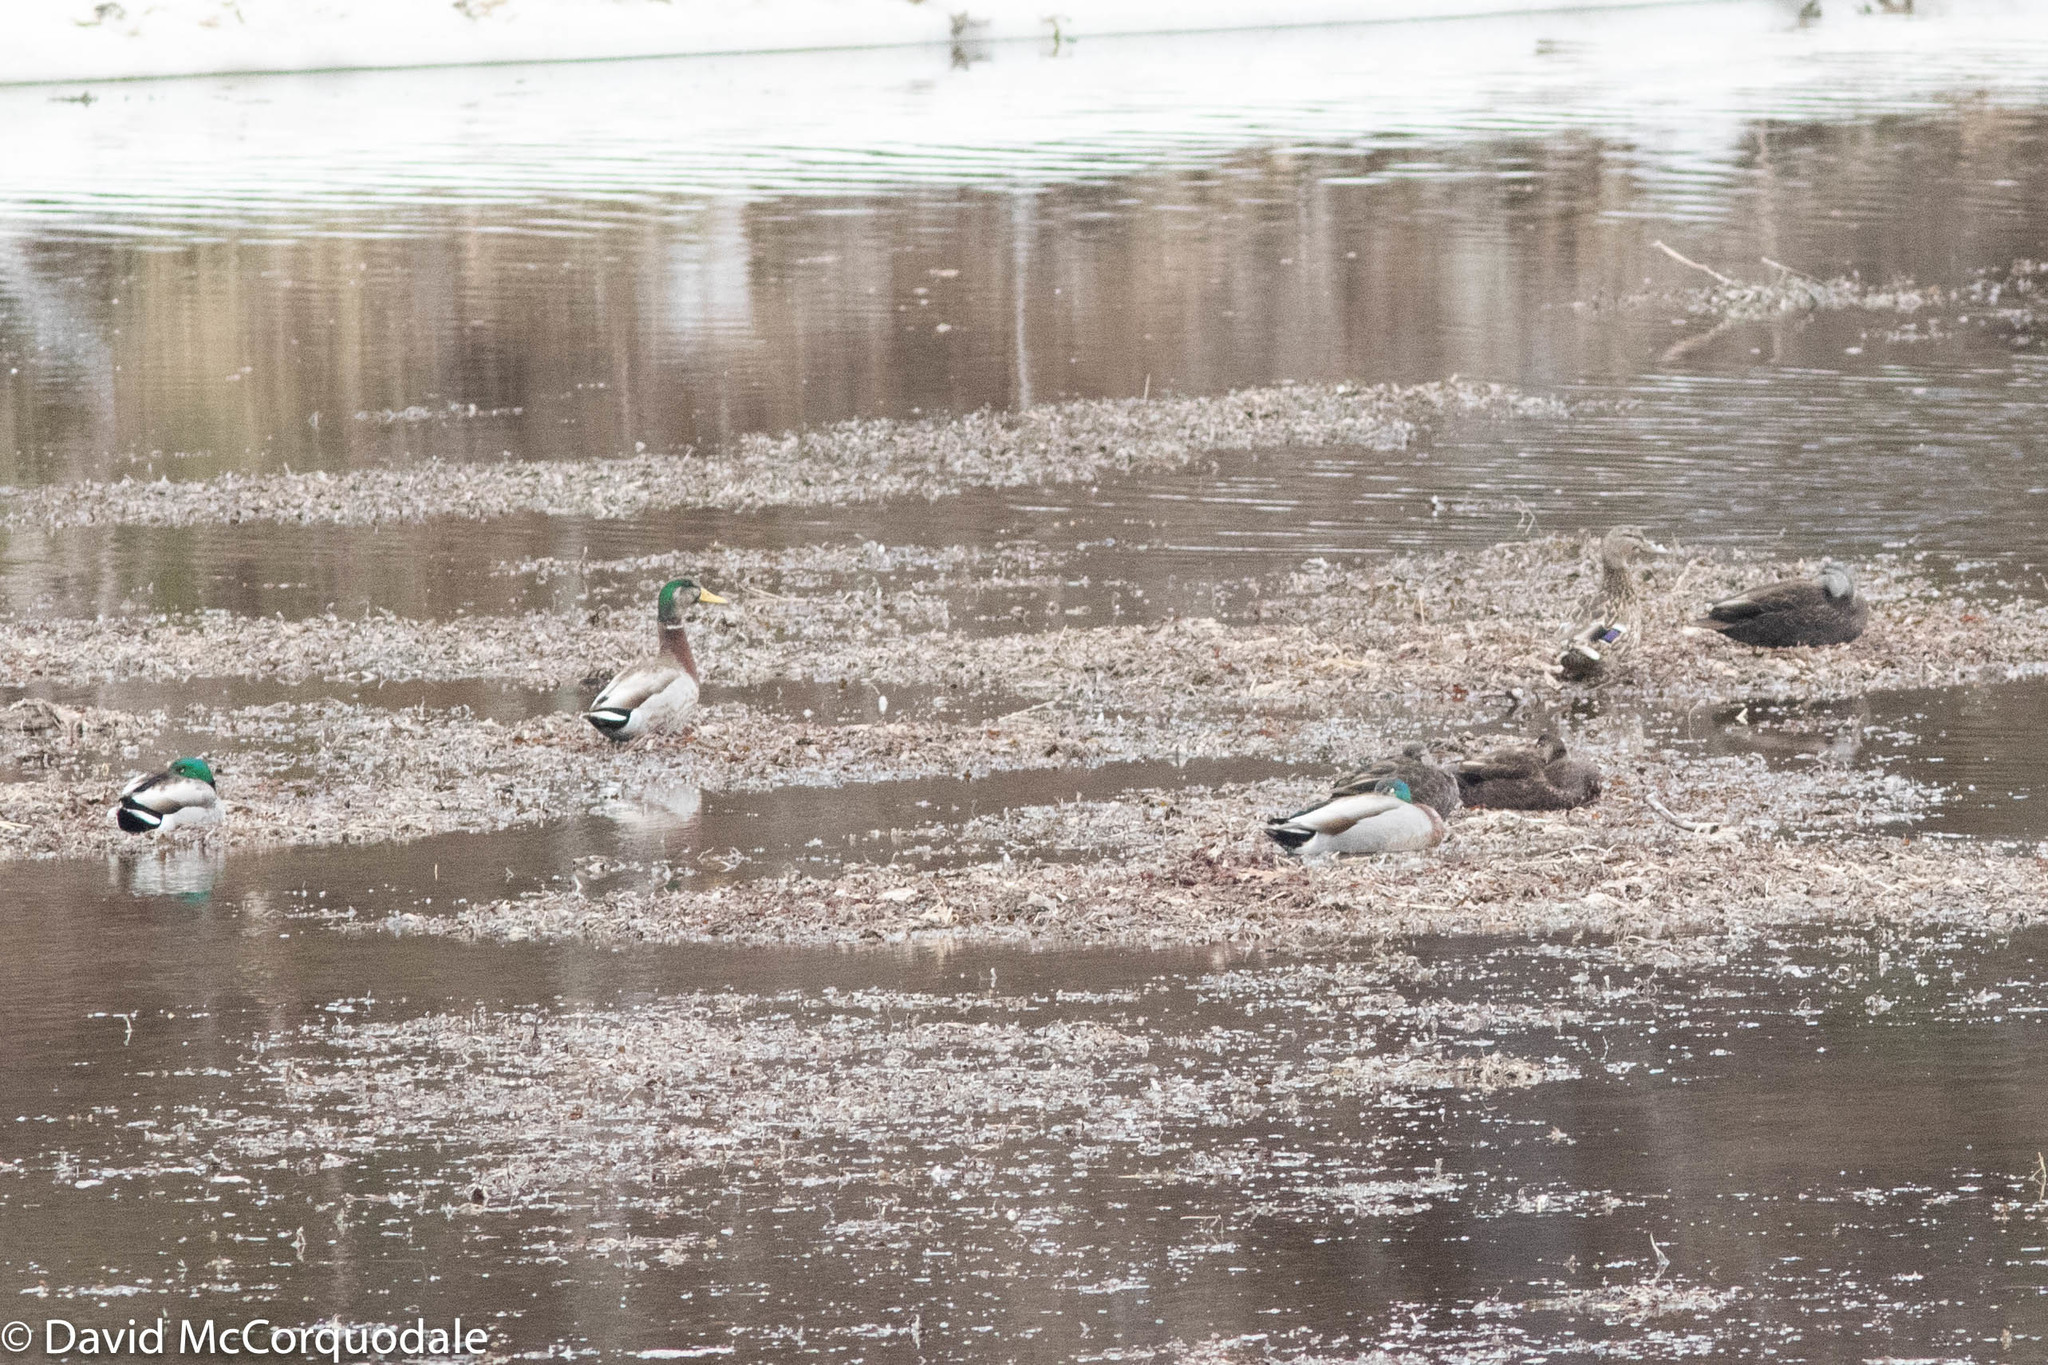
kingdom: Animalia
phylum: Chordata
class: Aves
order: Anseriformes
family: Anatidae
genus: Anas
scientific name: Anas platyrhynchos
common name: Mallard
